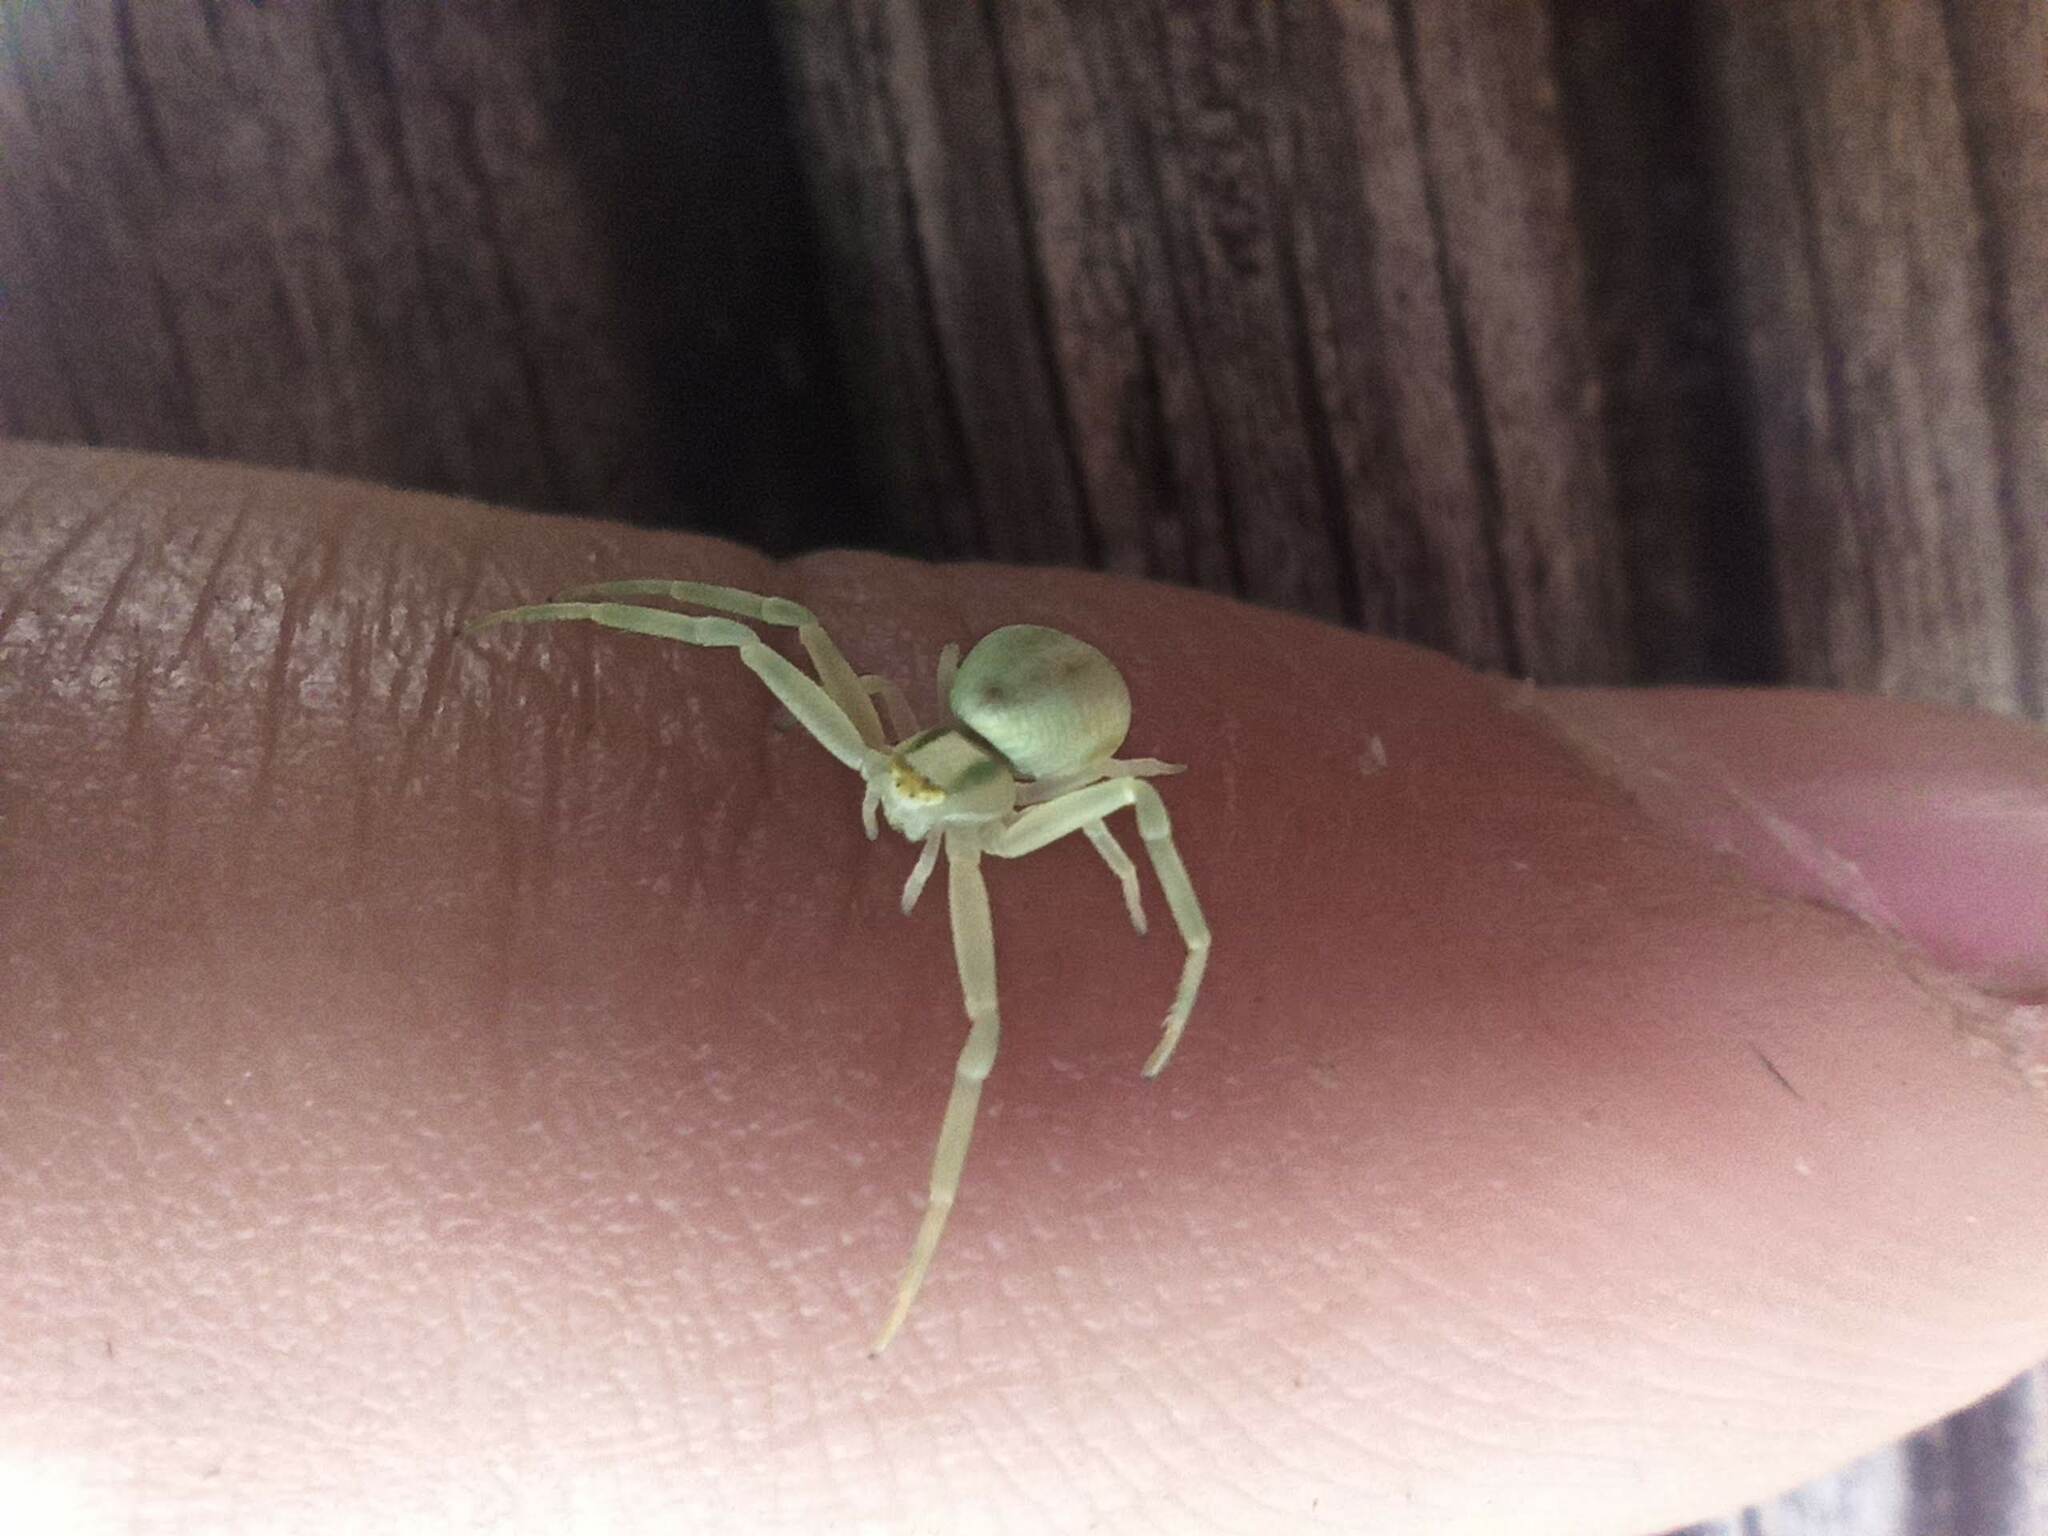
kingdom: Animalia
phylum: Arthropoda
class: Arachnida
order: Araneae
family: Thomisidae
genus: Misumena
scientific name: Misumena vatia
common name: Goldenrod crab spider
